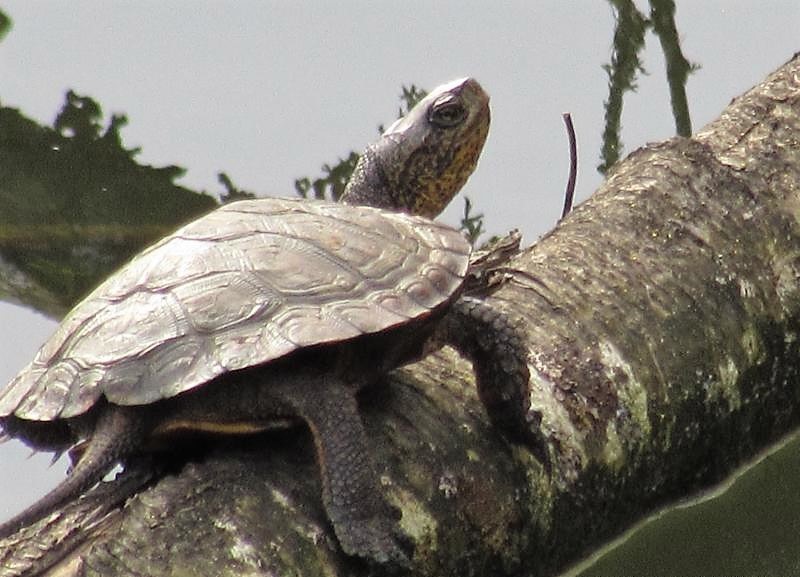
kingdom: Animalia
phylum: Chordata
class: Testudines
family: Emydidae
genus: Actinemys
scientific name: Actinemys marmorata
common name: Western pond turtle
